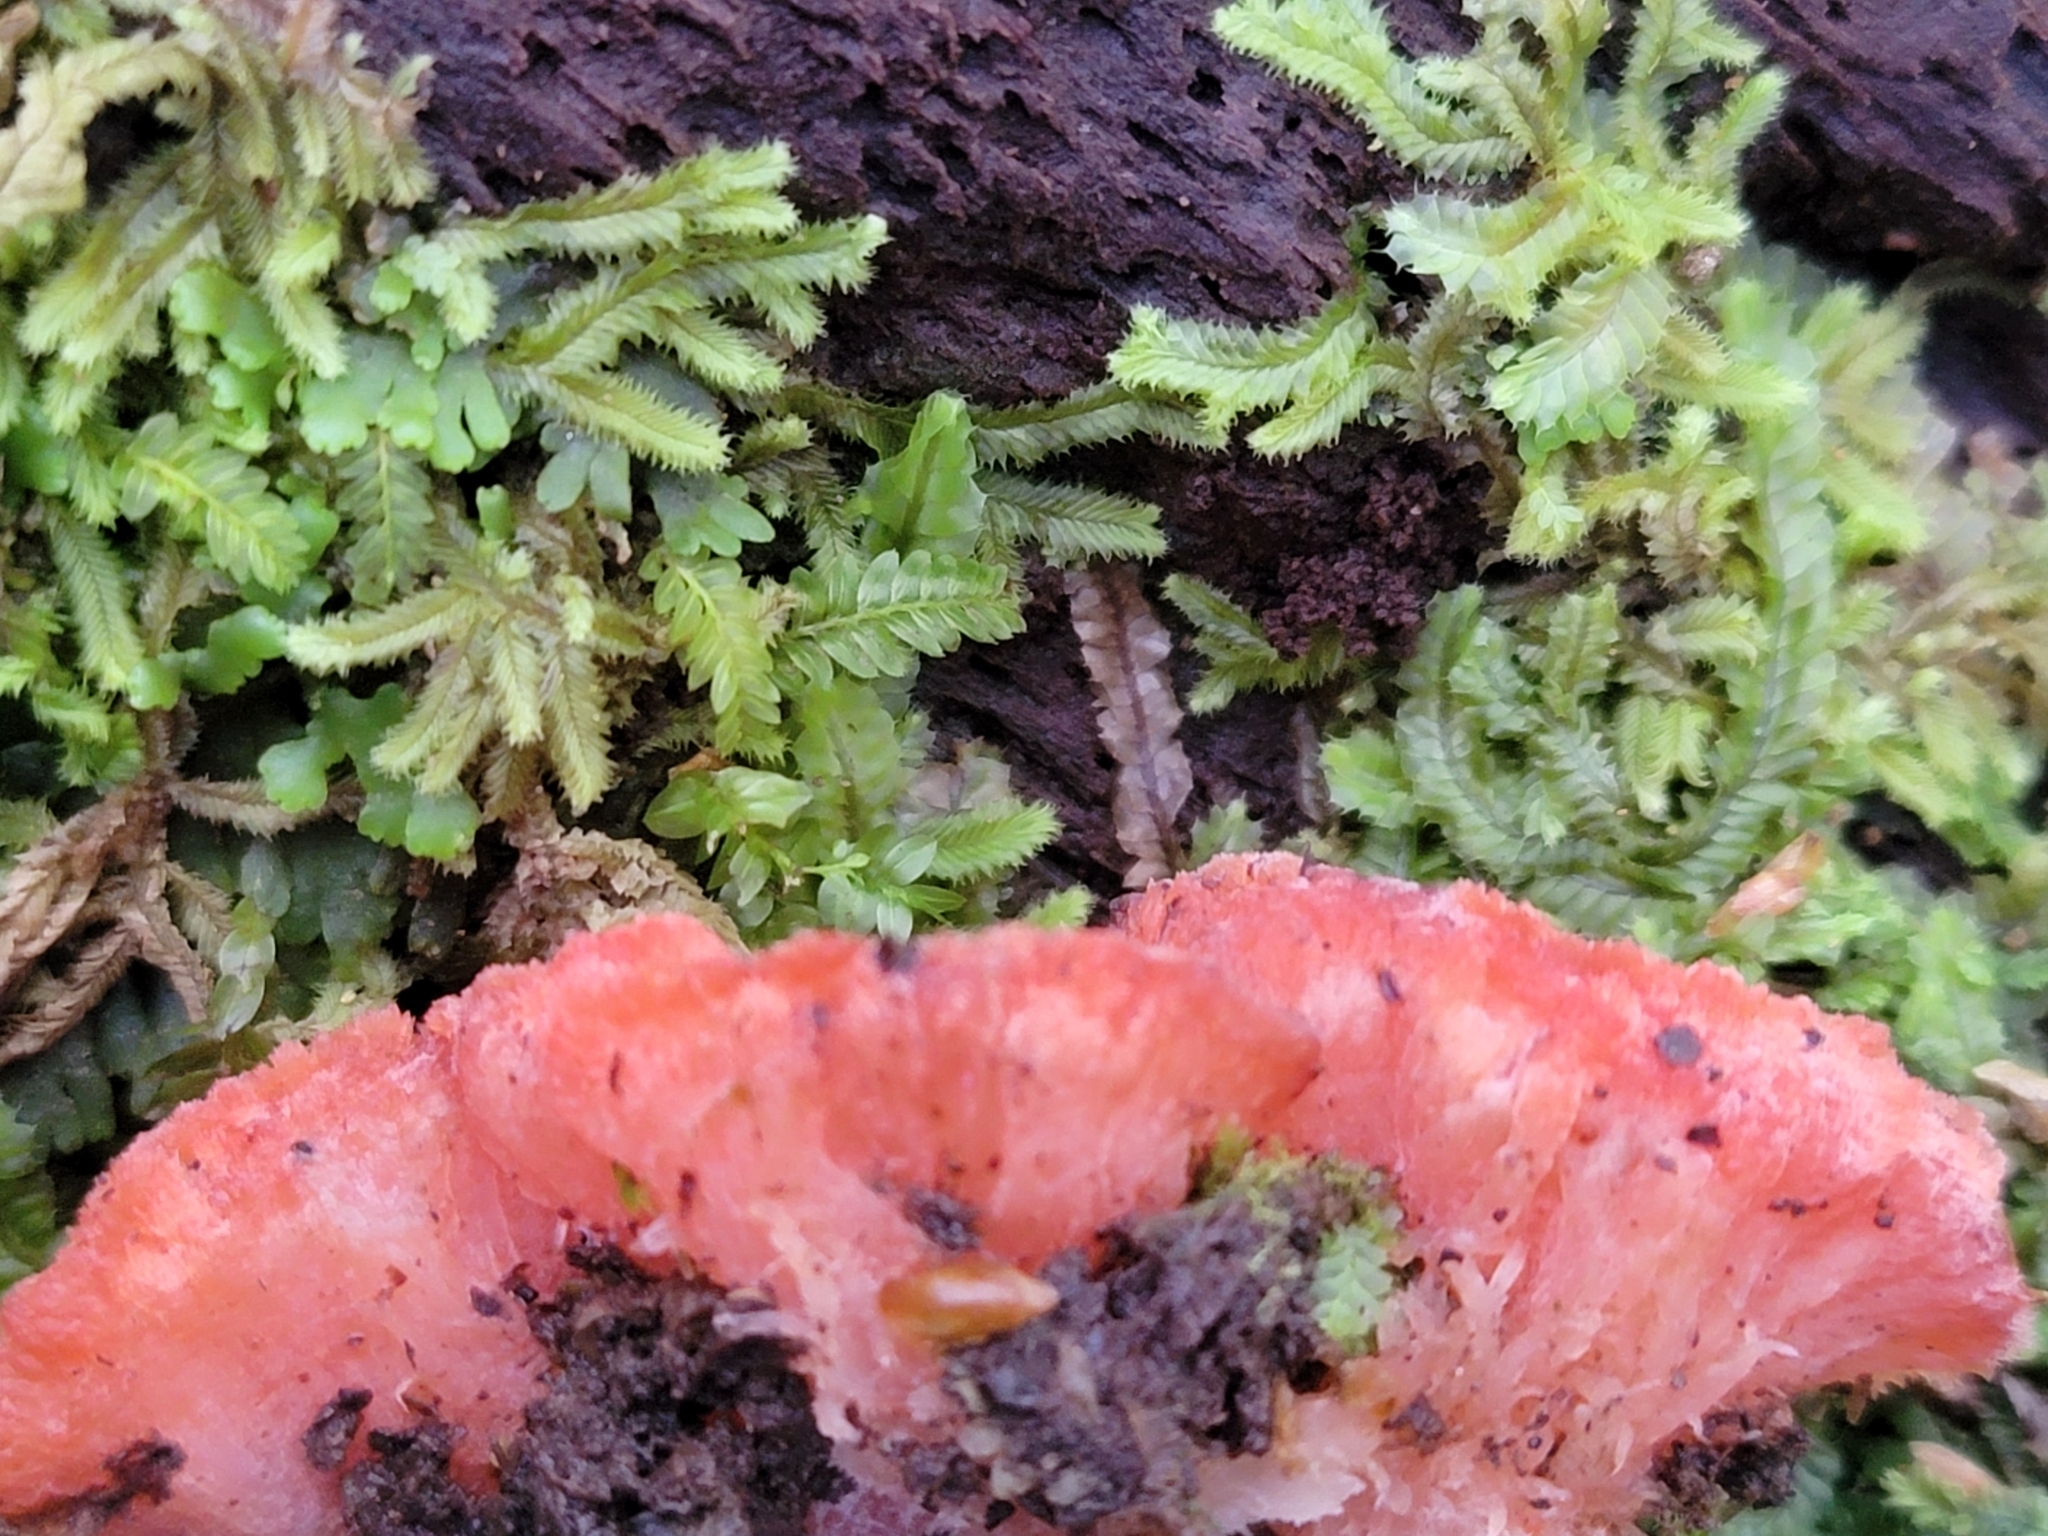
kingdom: Fungi
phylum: Basidiomycota
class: Agaricomycetes
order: Polyporales
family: Incrustoporiaceae
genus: Tyromyces
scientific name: Tyromyces pulcherrimus
